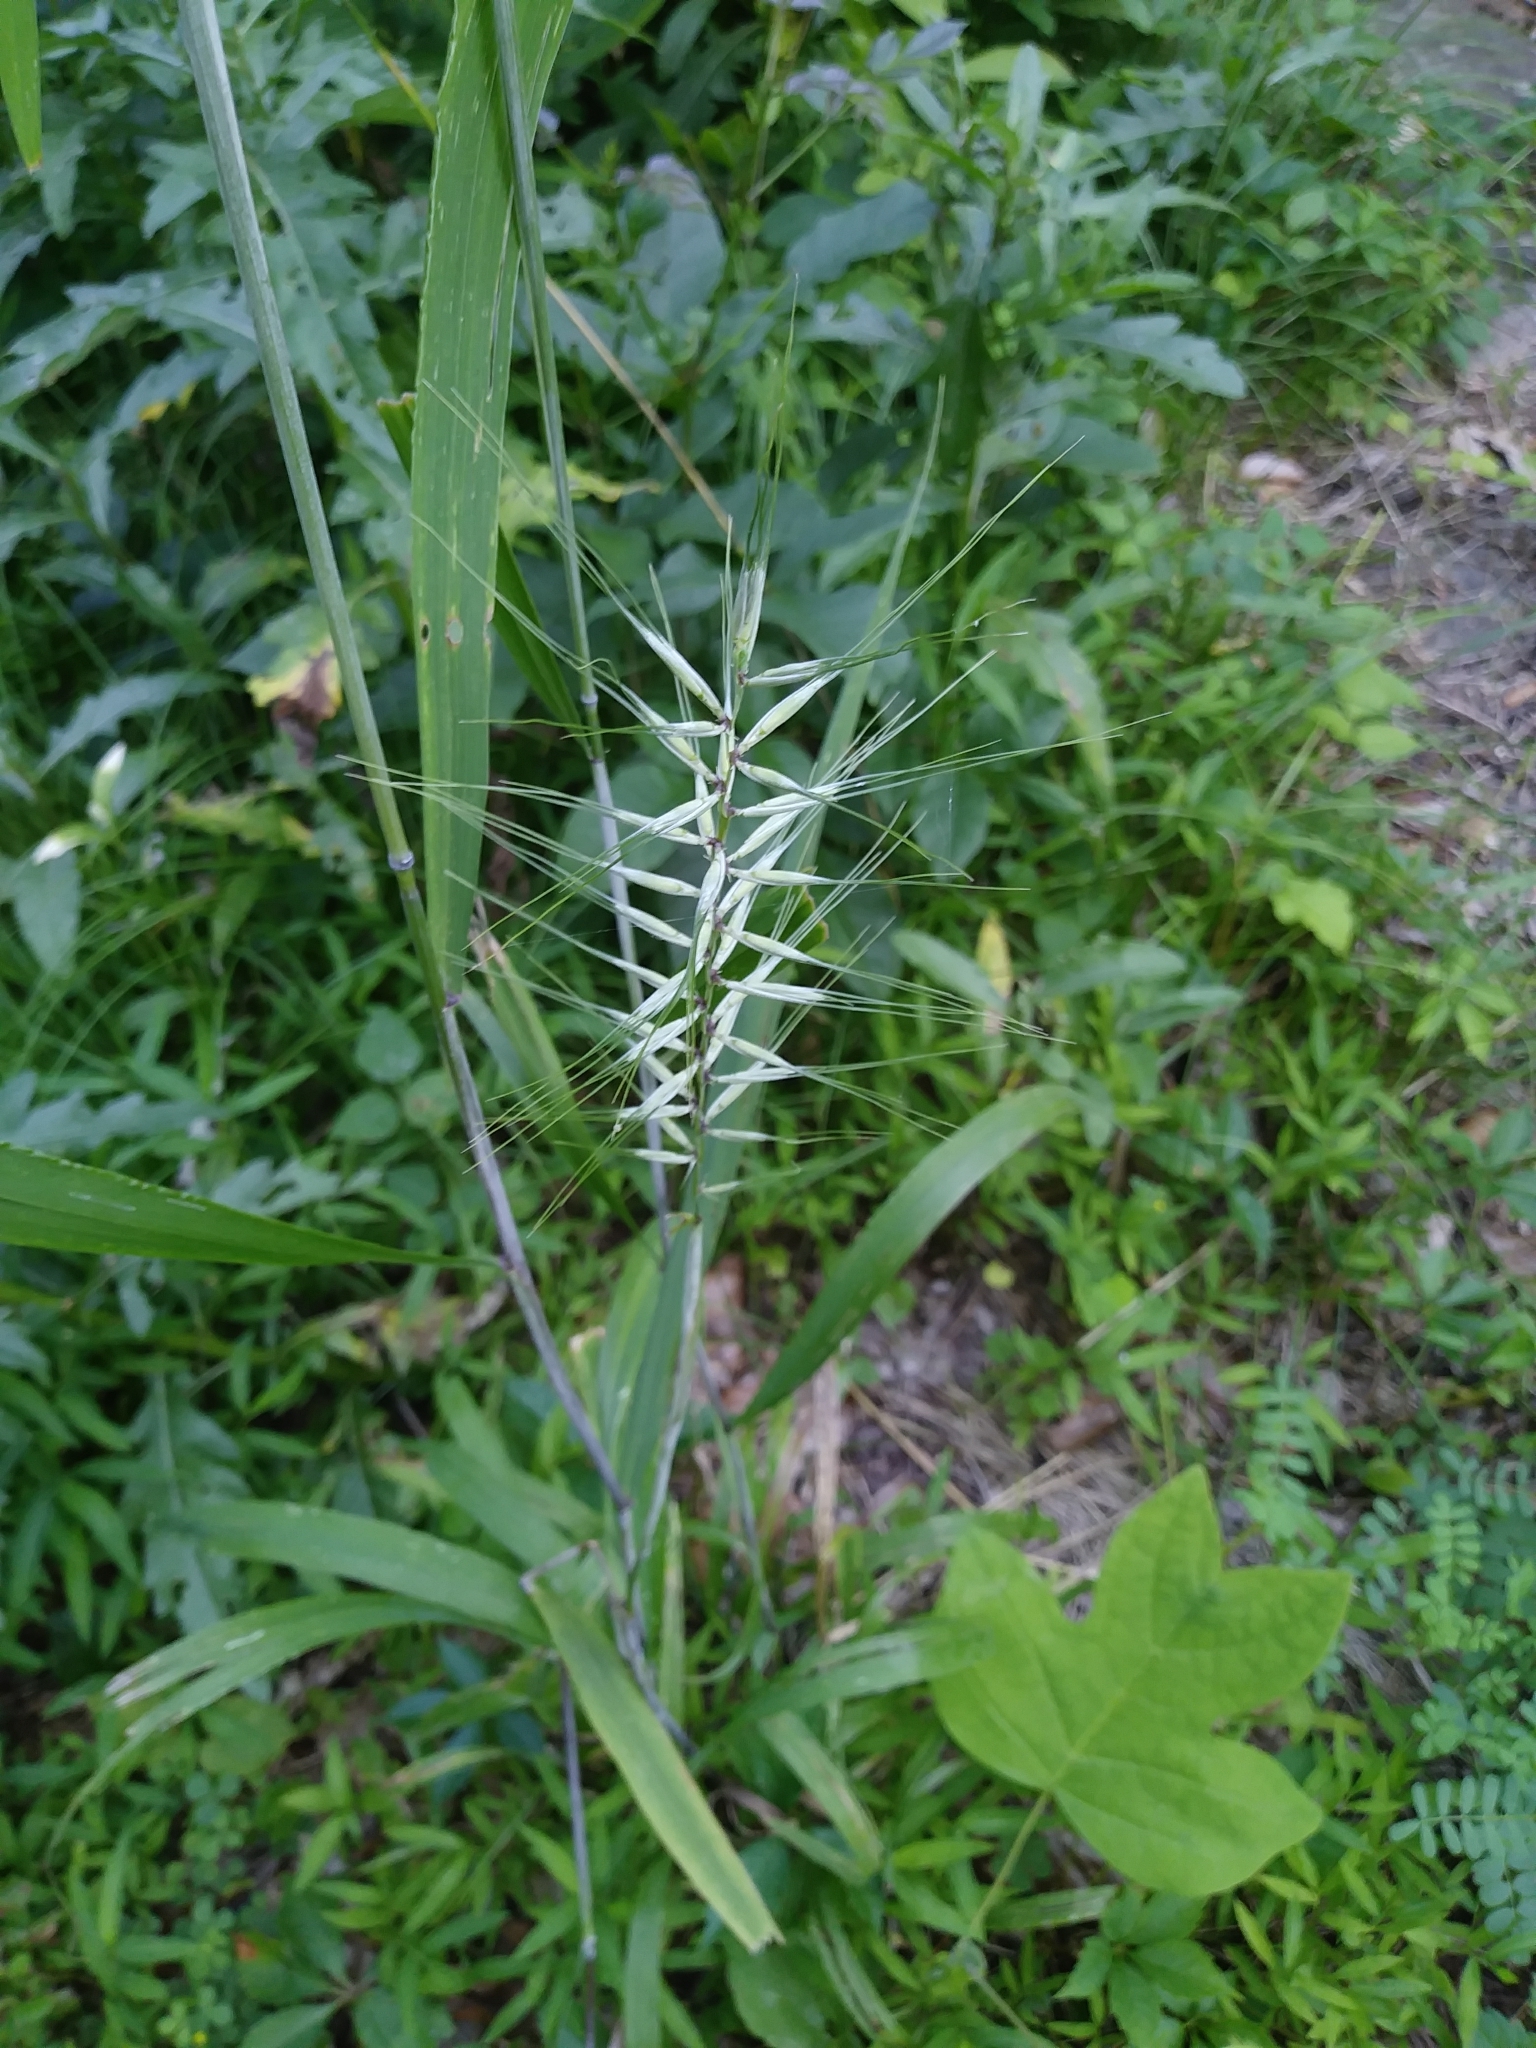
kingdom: Plantae
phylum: Tracheophyta
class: Liliopsida
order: Poales
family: Poaceae
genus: Elymus
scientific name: Elymus hystrix
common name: Bottlebrush grass
